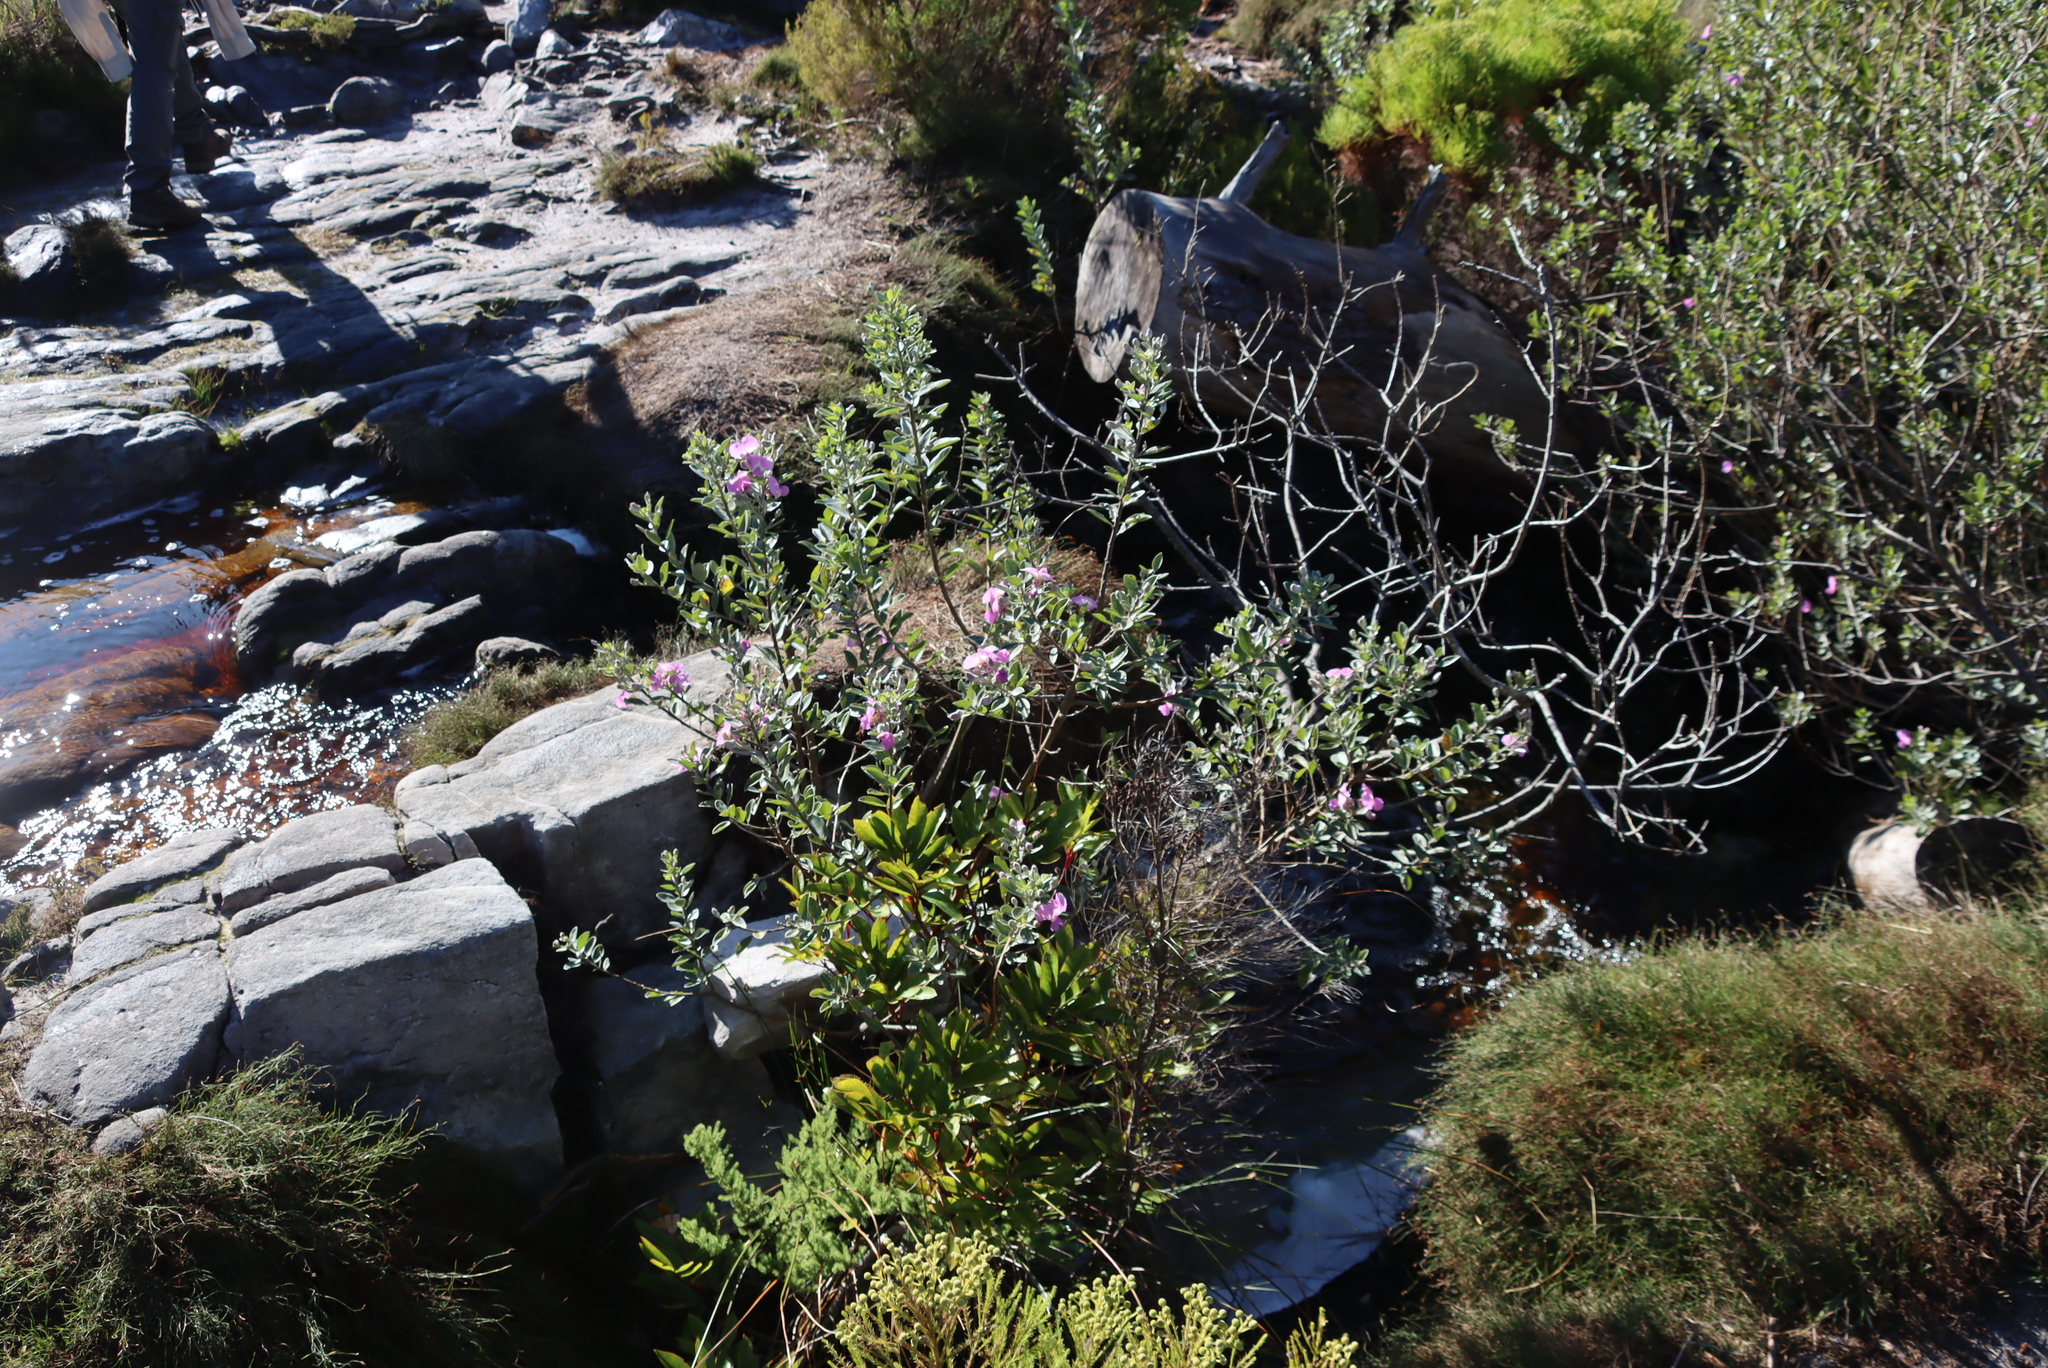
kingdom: Plantae
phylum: Tracheophyta
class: Magnoliopsida
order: Fabales
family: Fabaceae
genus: Podalyria
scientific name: Podalyria calyptrata
